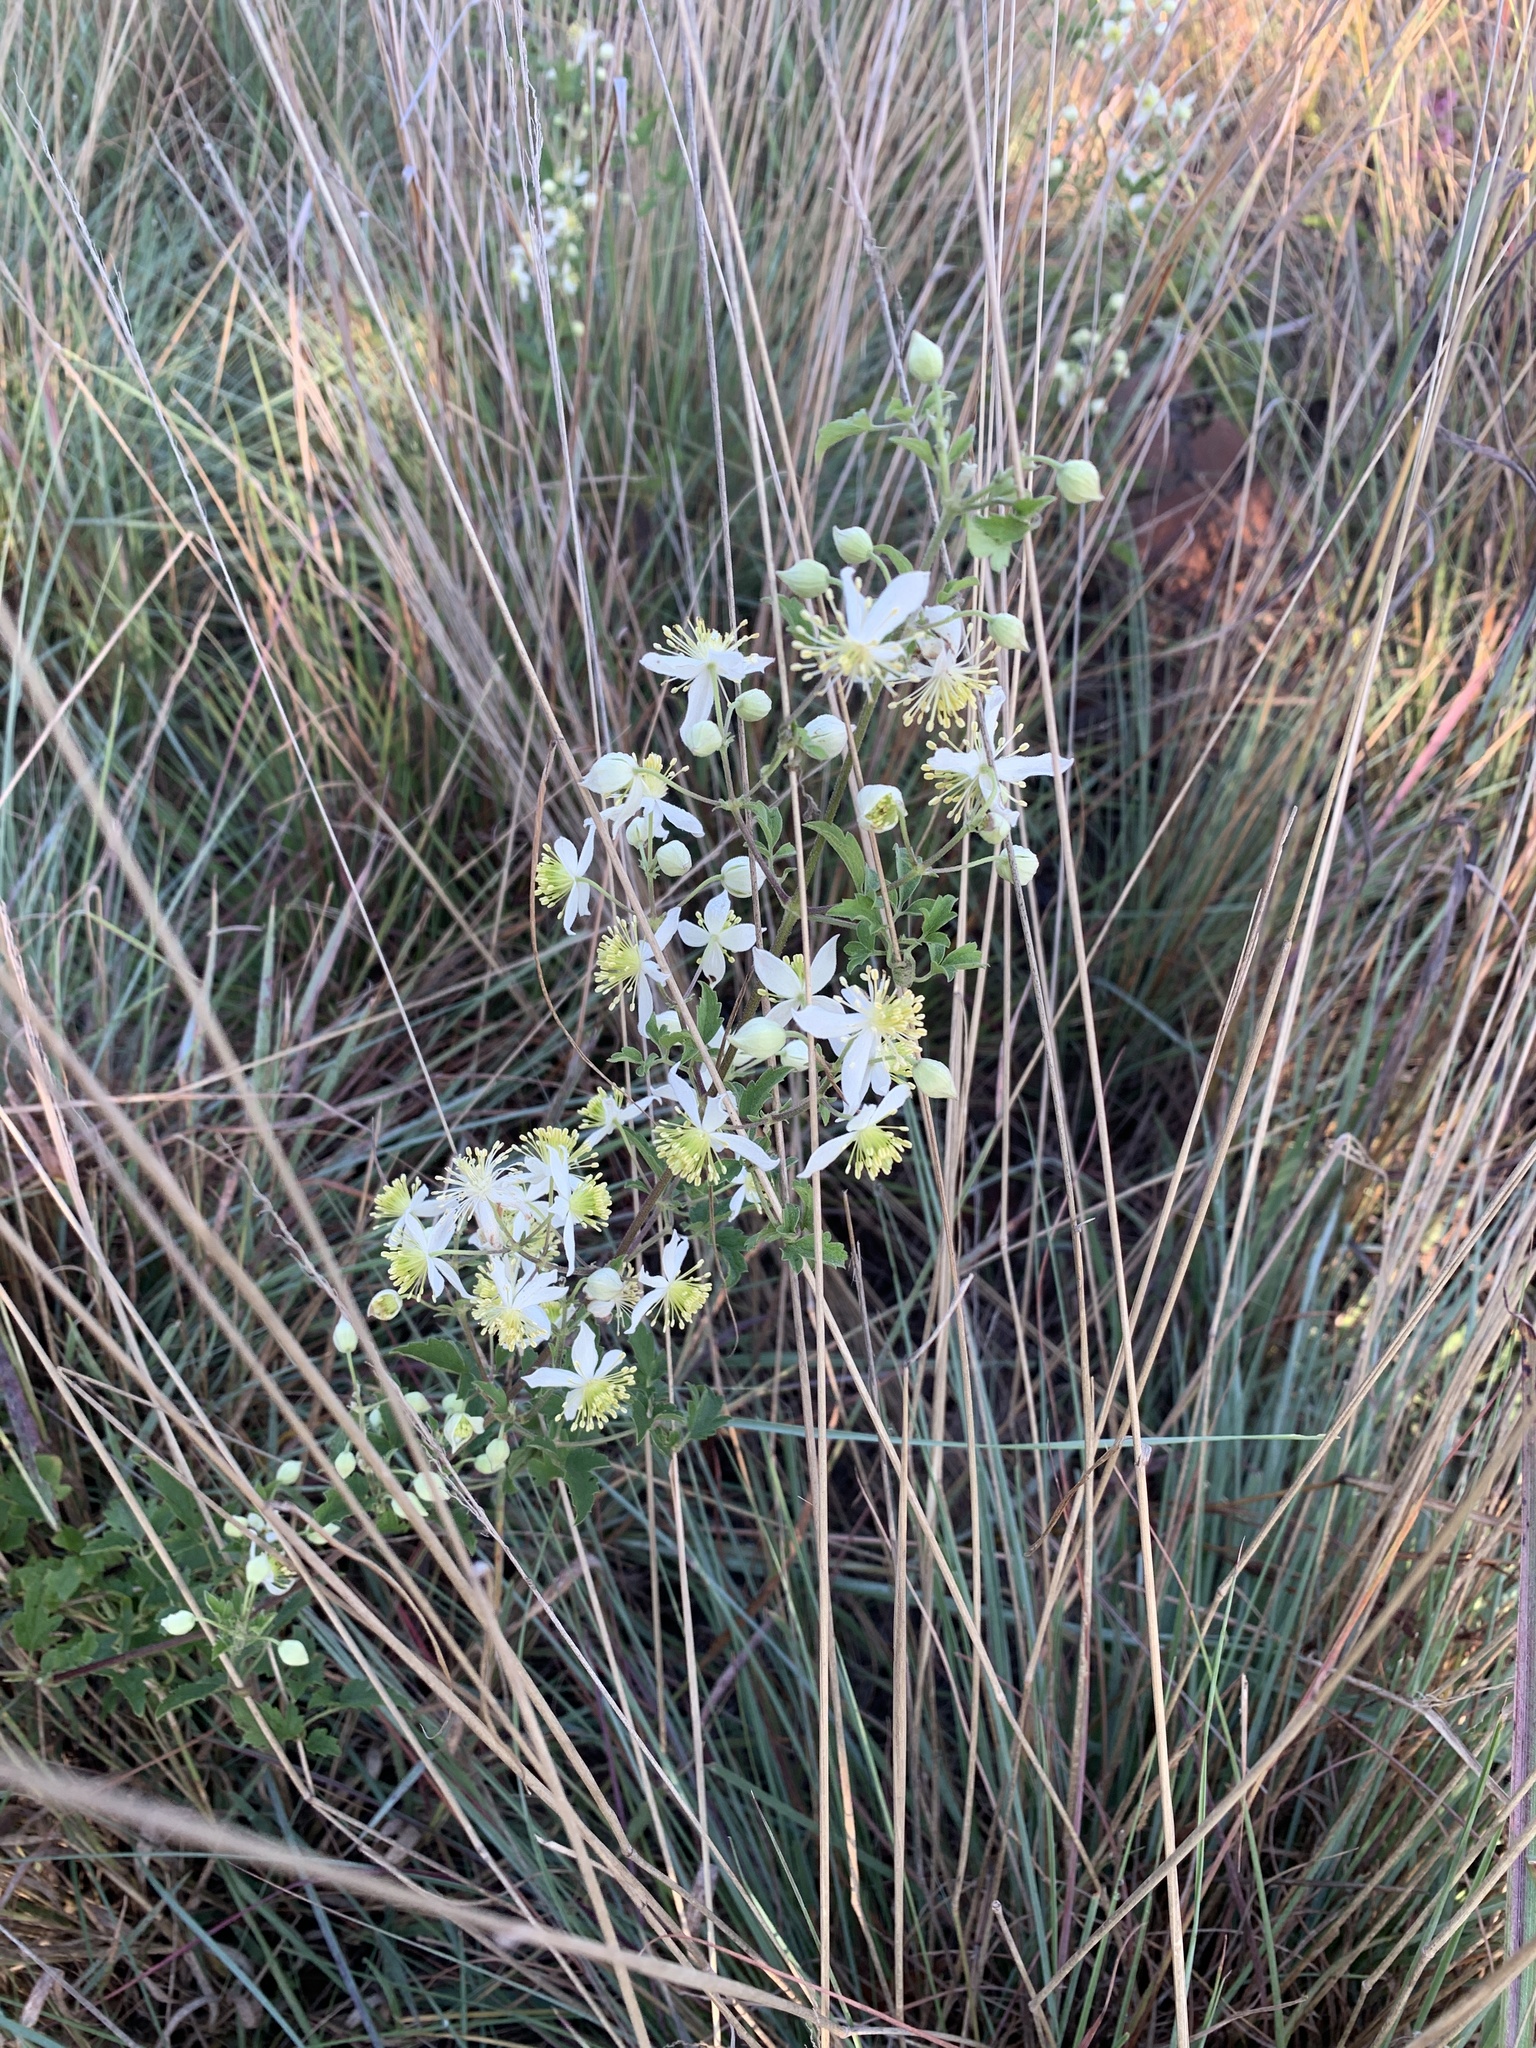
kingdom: Plantae
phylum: Tracheophyta
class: Magnoliopsida
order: Ranunculales
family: Ranunculaceae
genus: Clematis
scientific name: Clematis brachiata
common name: Traveler's-joy
